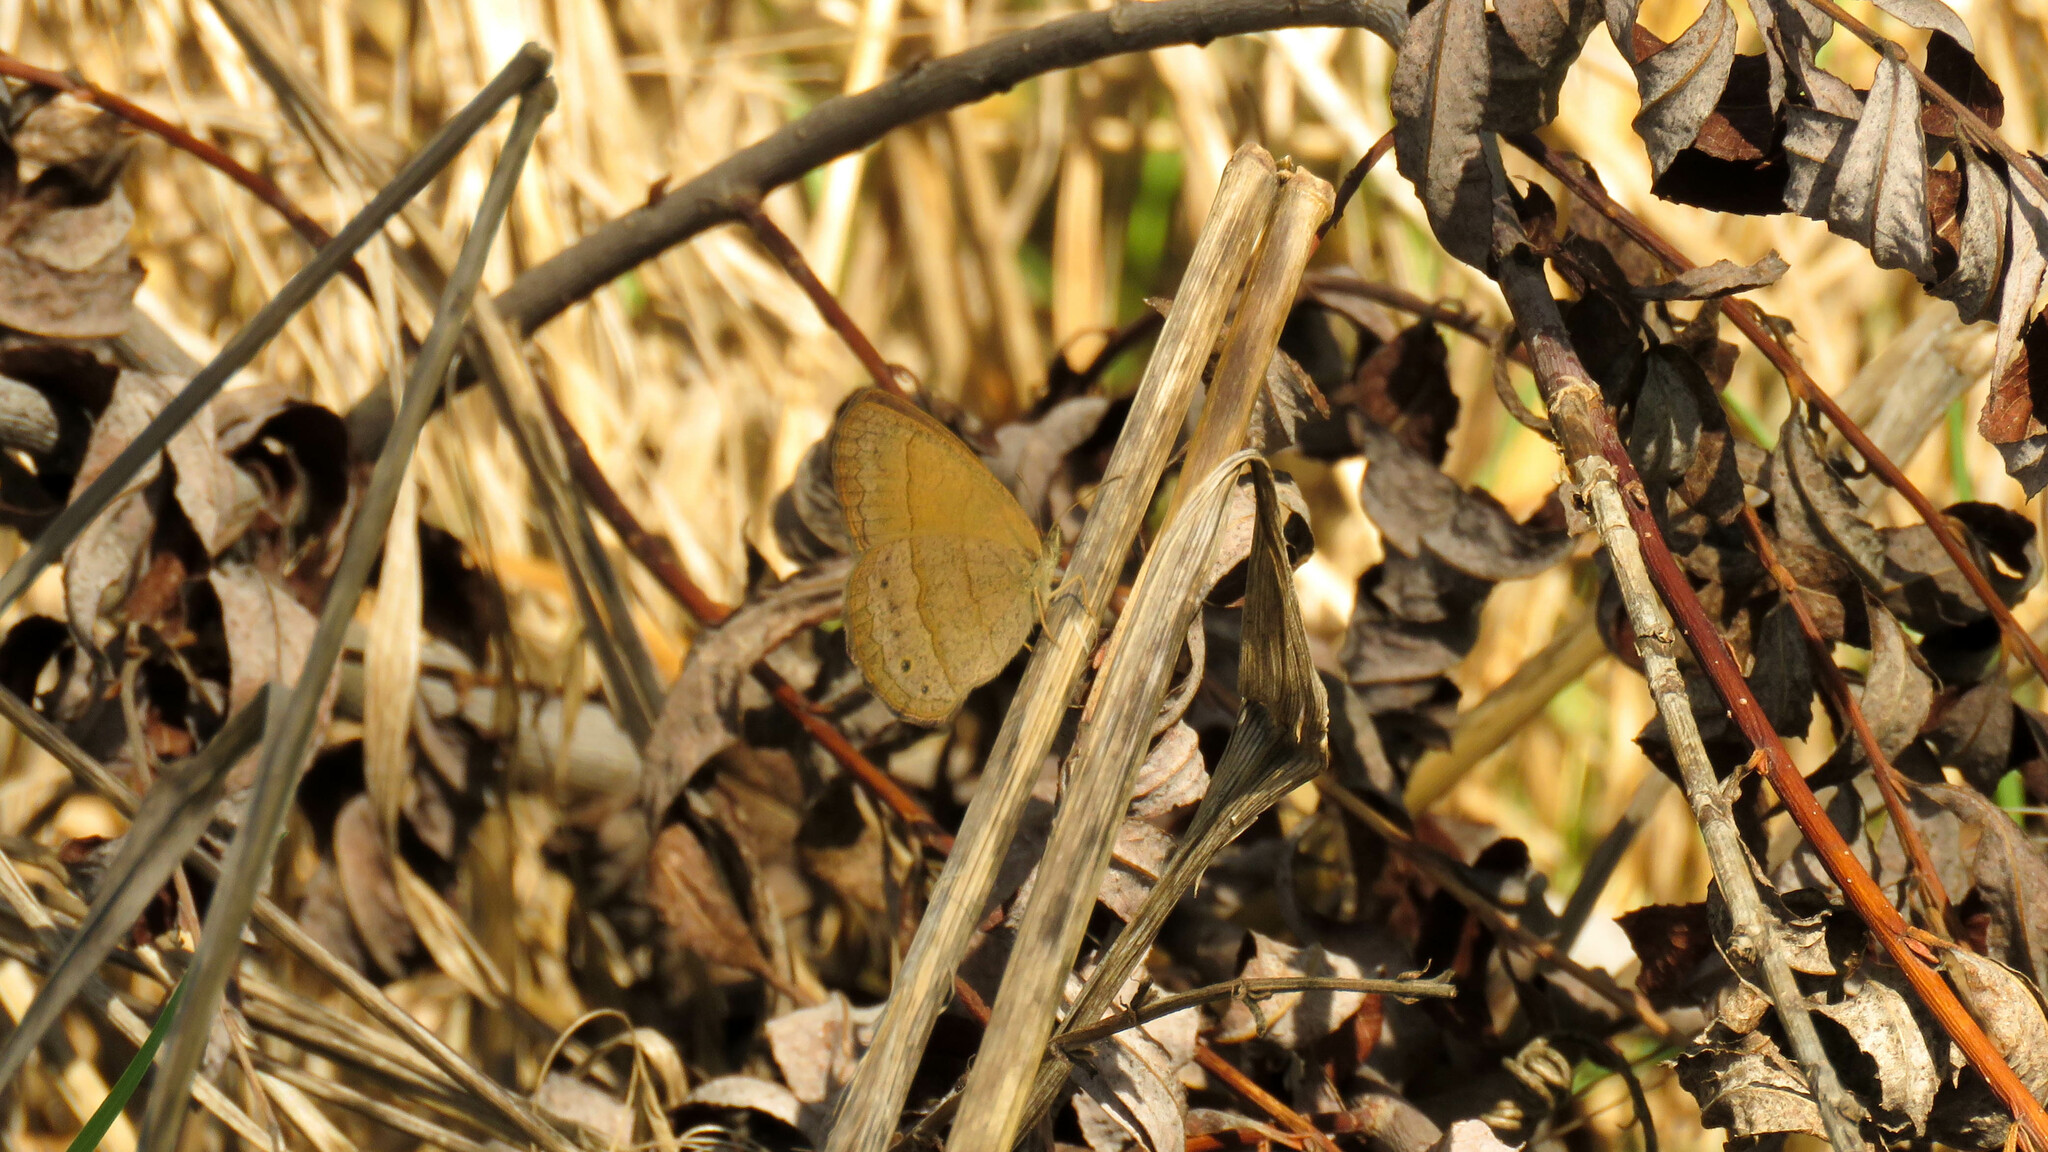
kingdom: Animalia
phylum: Arthropoda
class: Insecta
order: Lepidoptera
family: Nymphalidae
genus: Yphthimoides
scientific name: Yphthimoides celmis
